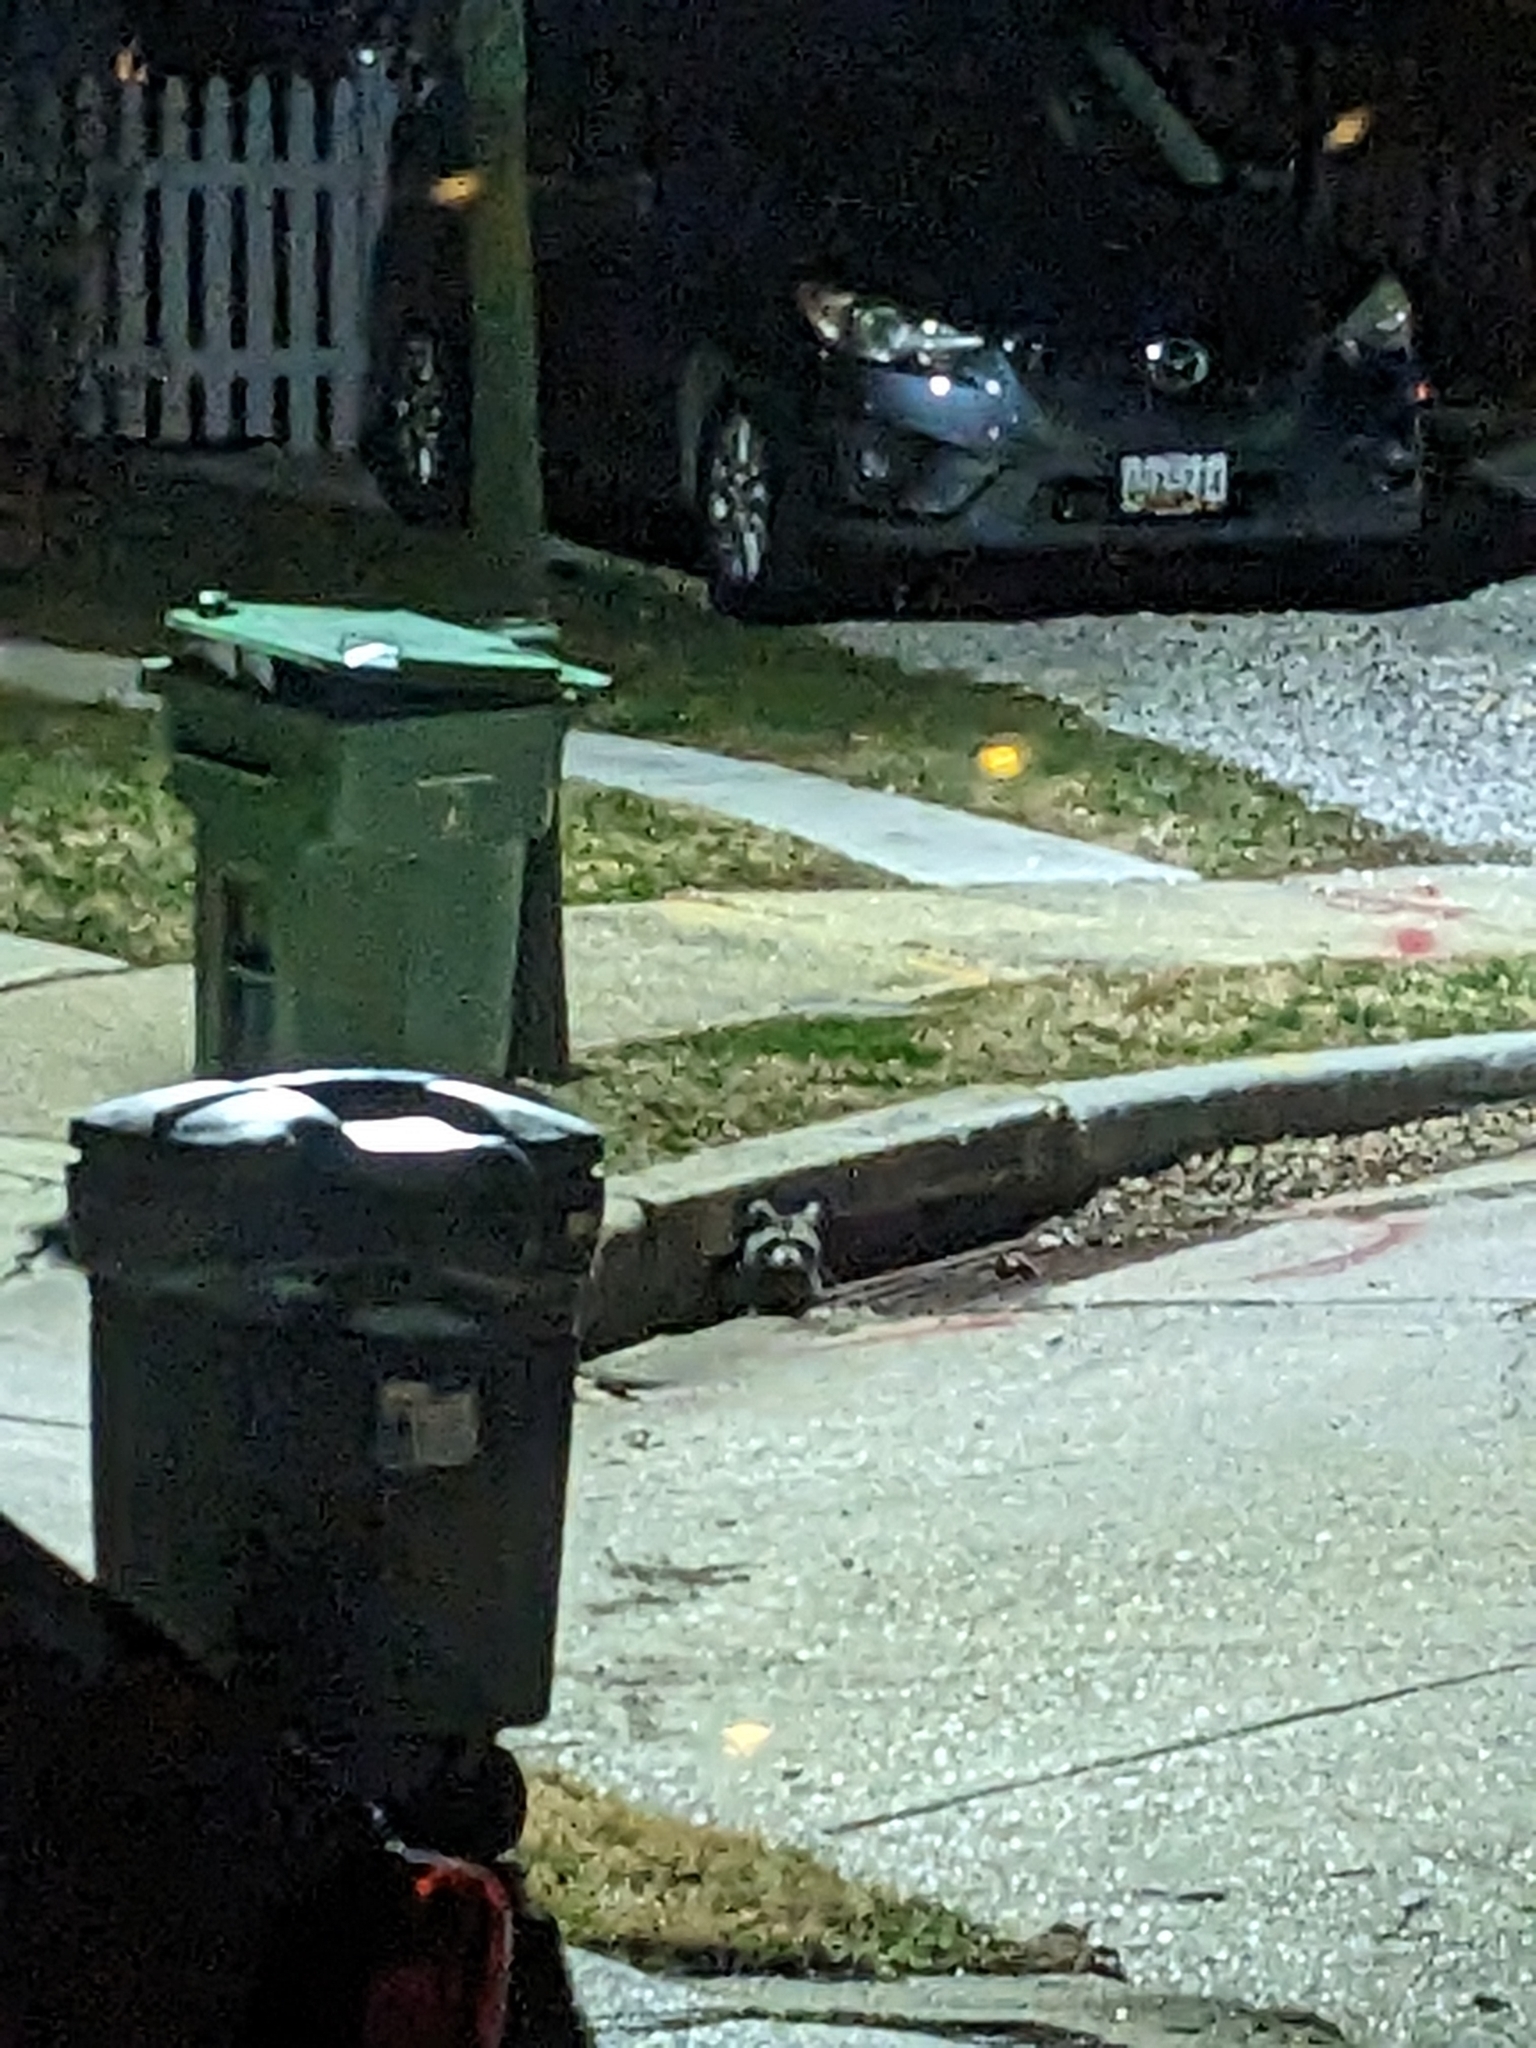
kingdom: Animalia
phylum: Chordata
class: Mammalia
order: Carnivora
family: Procyonidae
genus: Procyon
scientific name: Procyon lotor
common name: Raccoon
